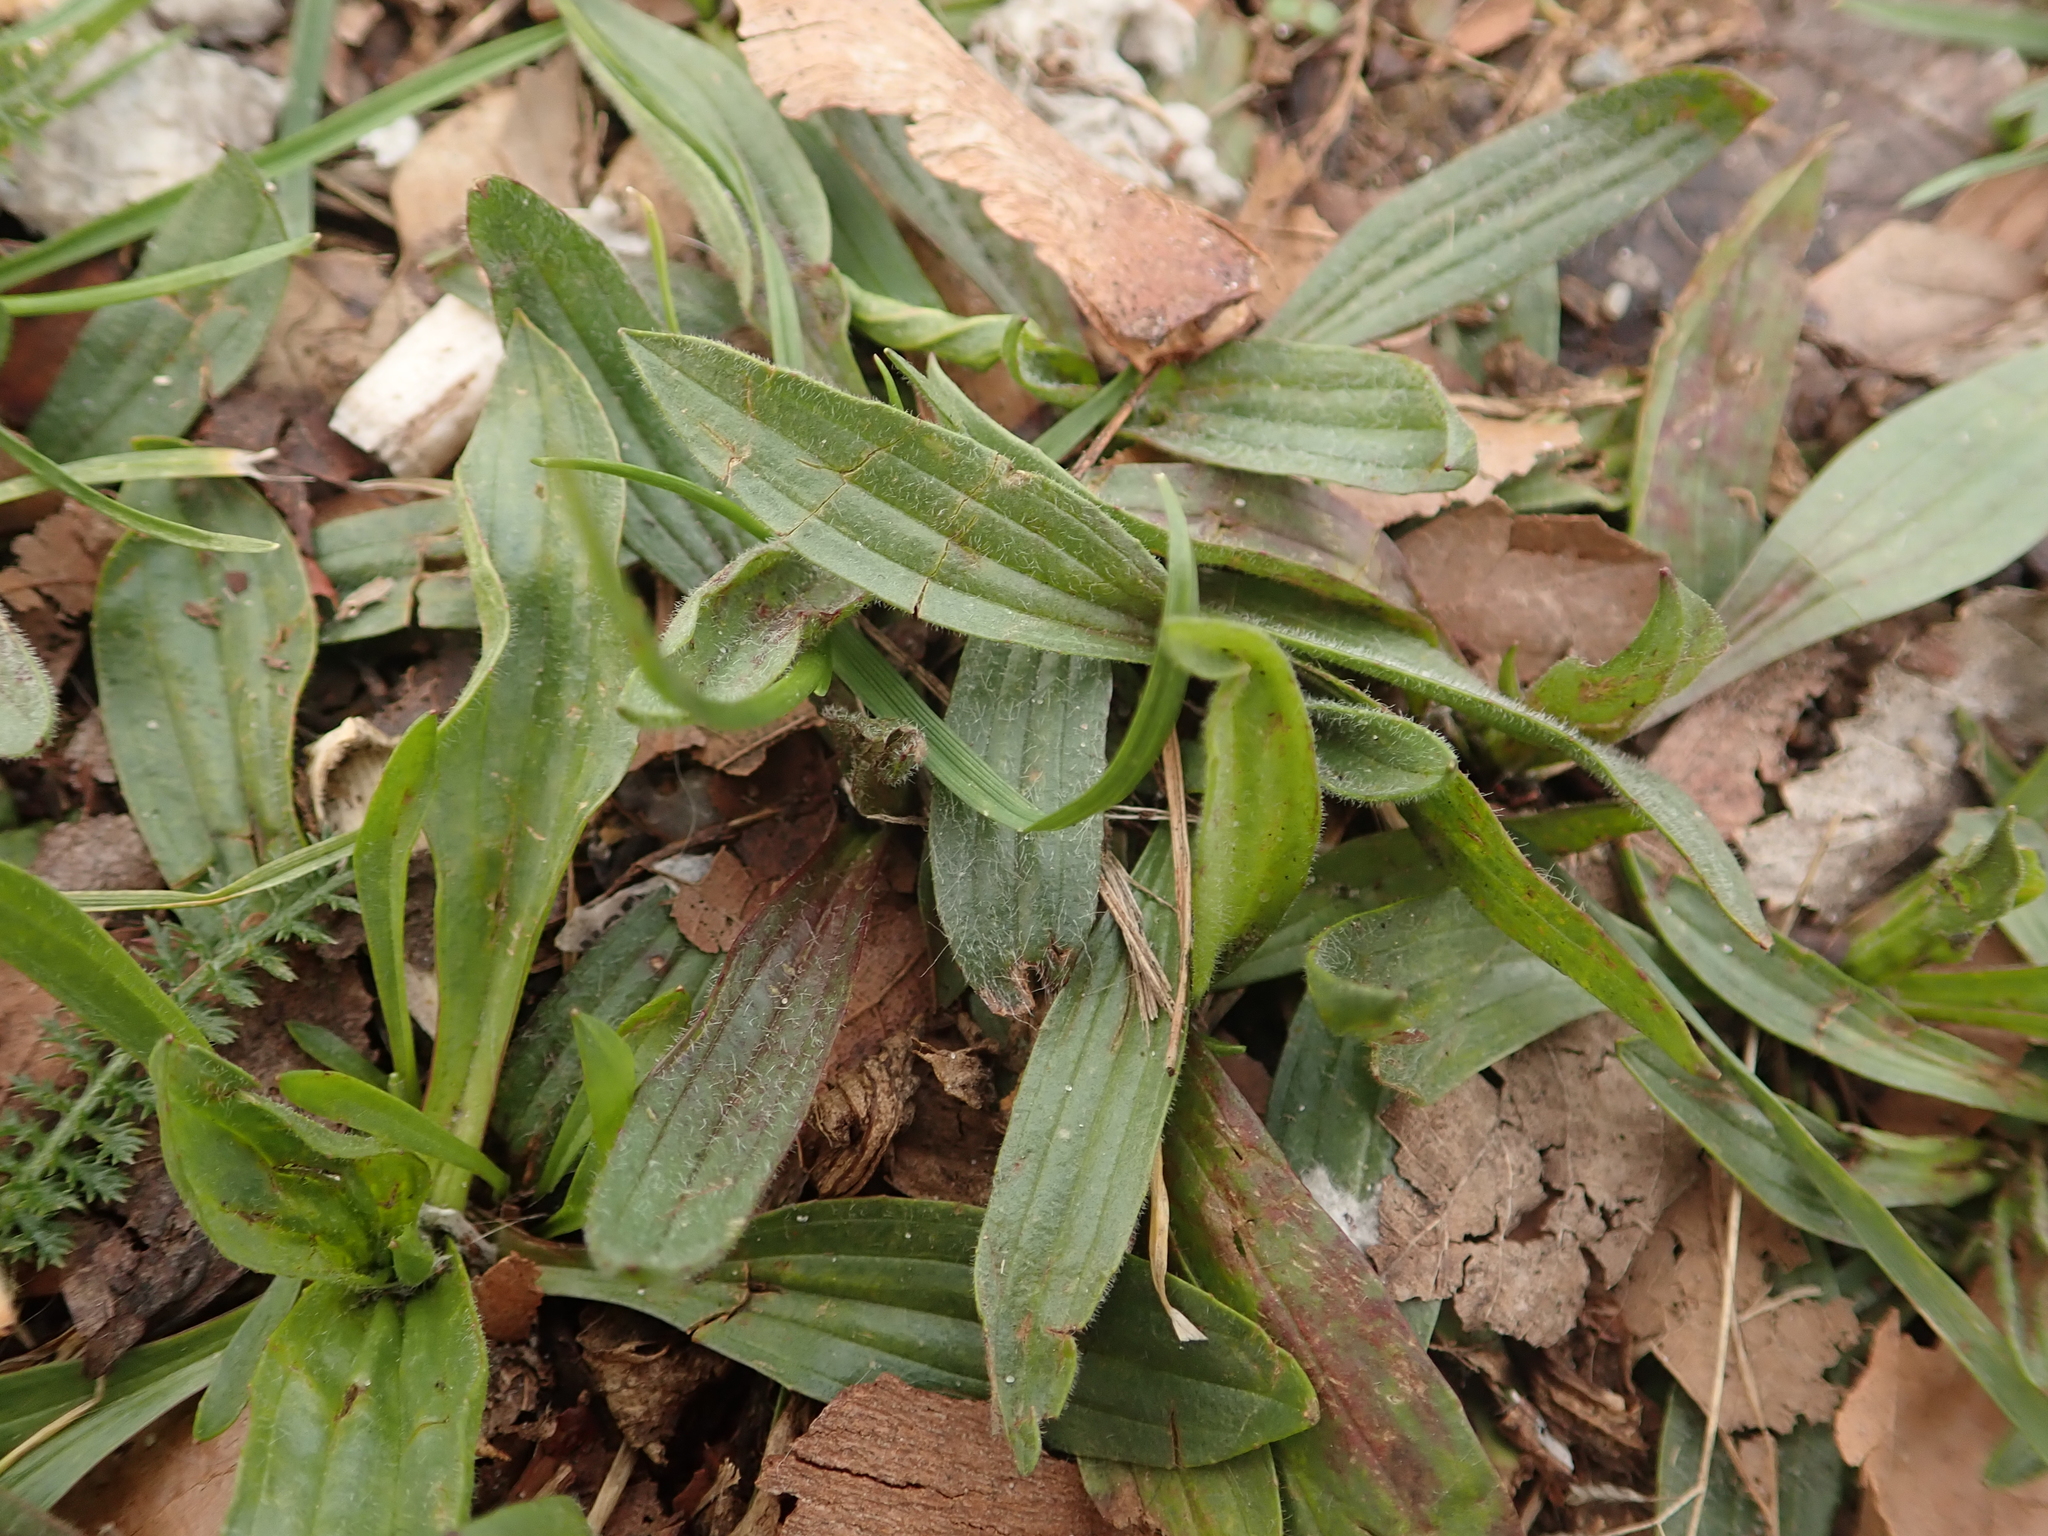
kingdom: Plantae
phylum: Tracheophyta
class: Magnoliopsida
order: Lamiales
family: Plantaginaceae
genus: Plantago
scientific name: Plantago lanceolata
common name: Ribwort plantain
